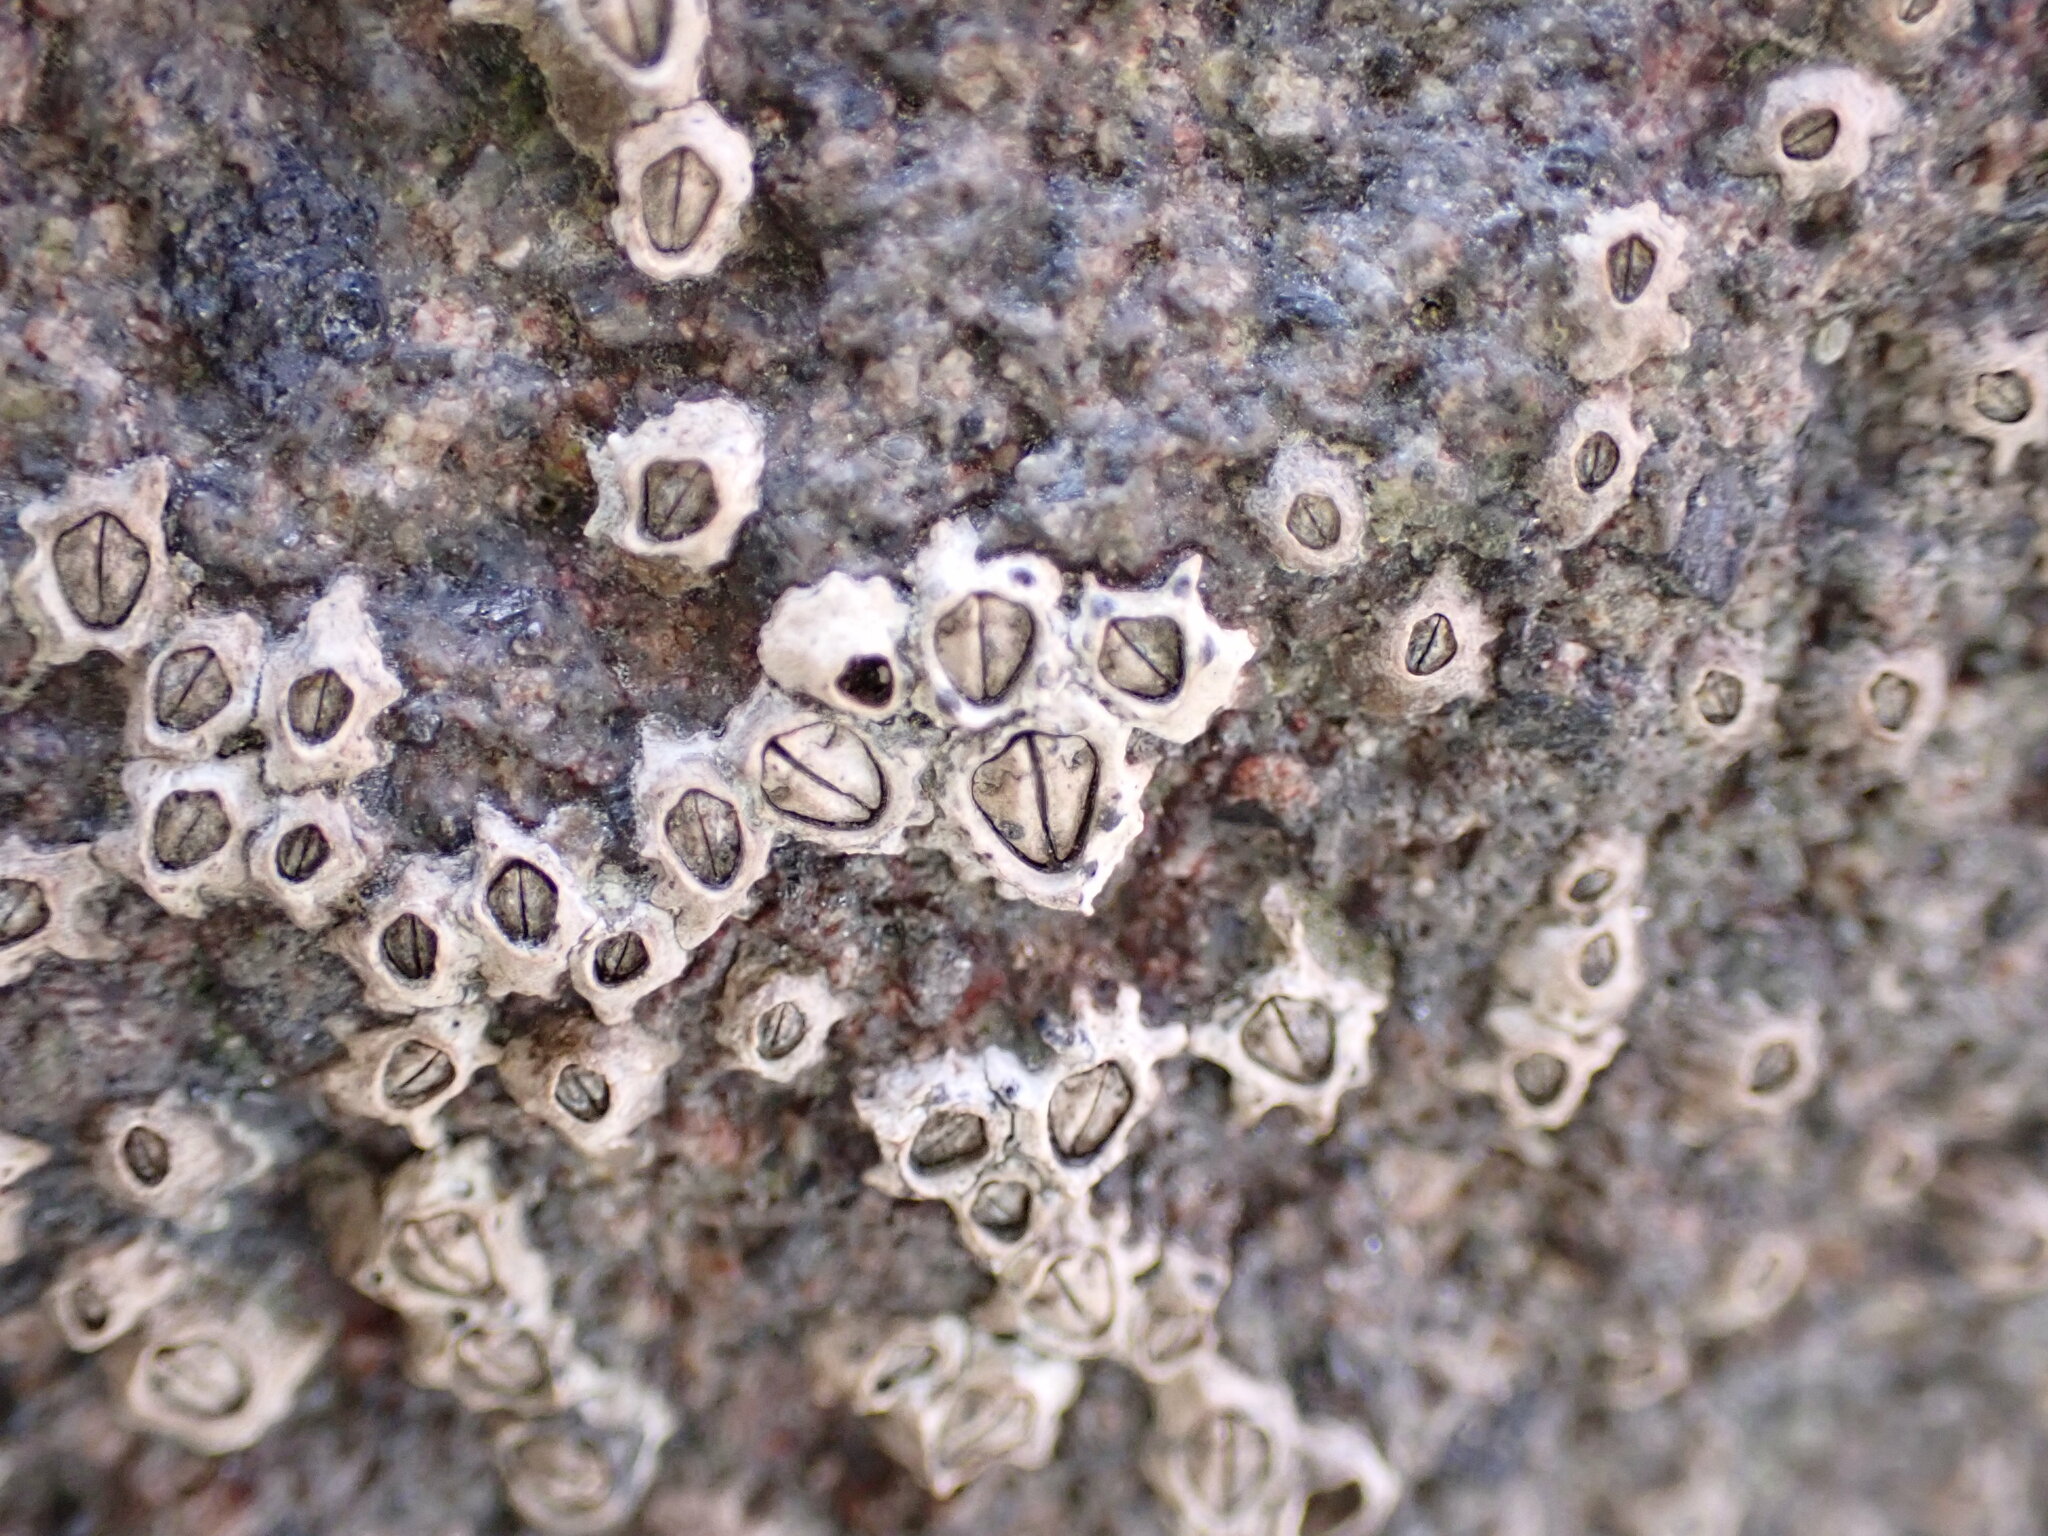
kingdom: Animalia
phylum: Arthropoda
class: Maxillopoda
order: Sessilia
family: Chthamalidae
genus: Chamaesipho
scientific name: Chamaesipho columna
